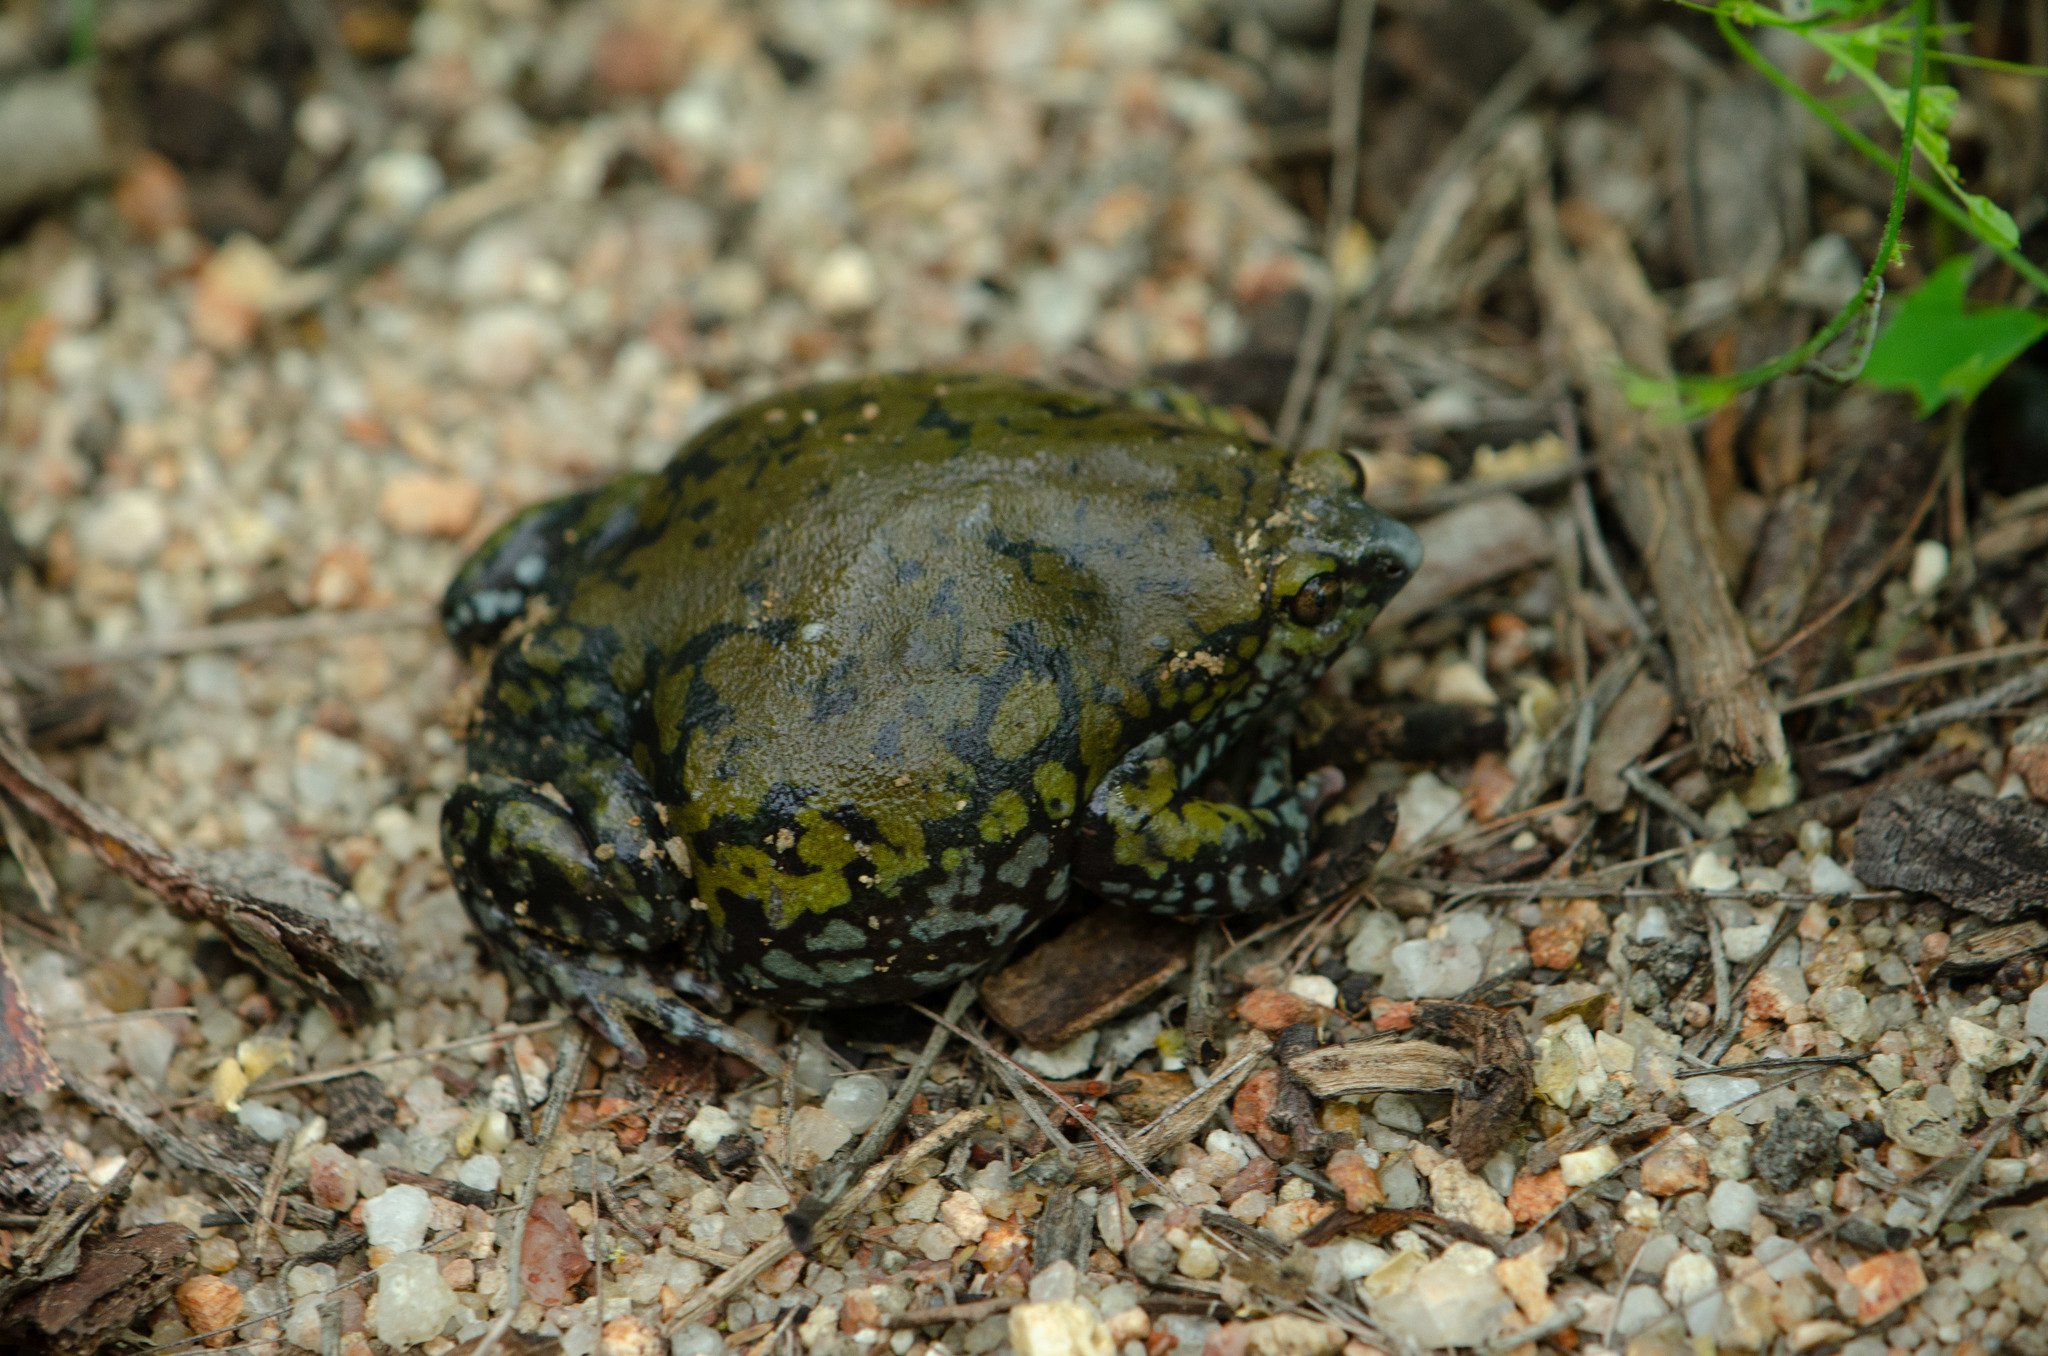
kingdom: Animalia
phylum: Chordata
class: Amphibia
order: Anura
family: Microhylidae
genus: Dermatonotus
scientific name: Dermatonotus muelleri
